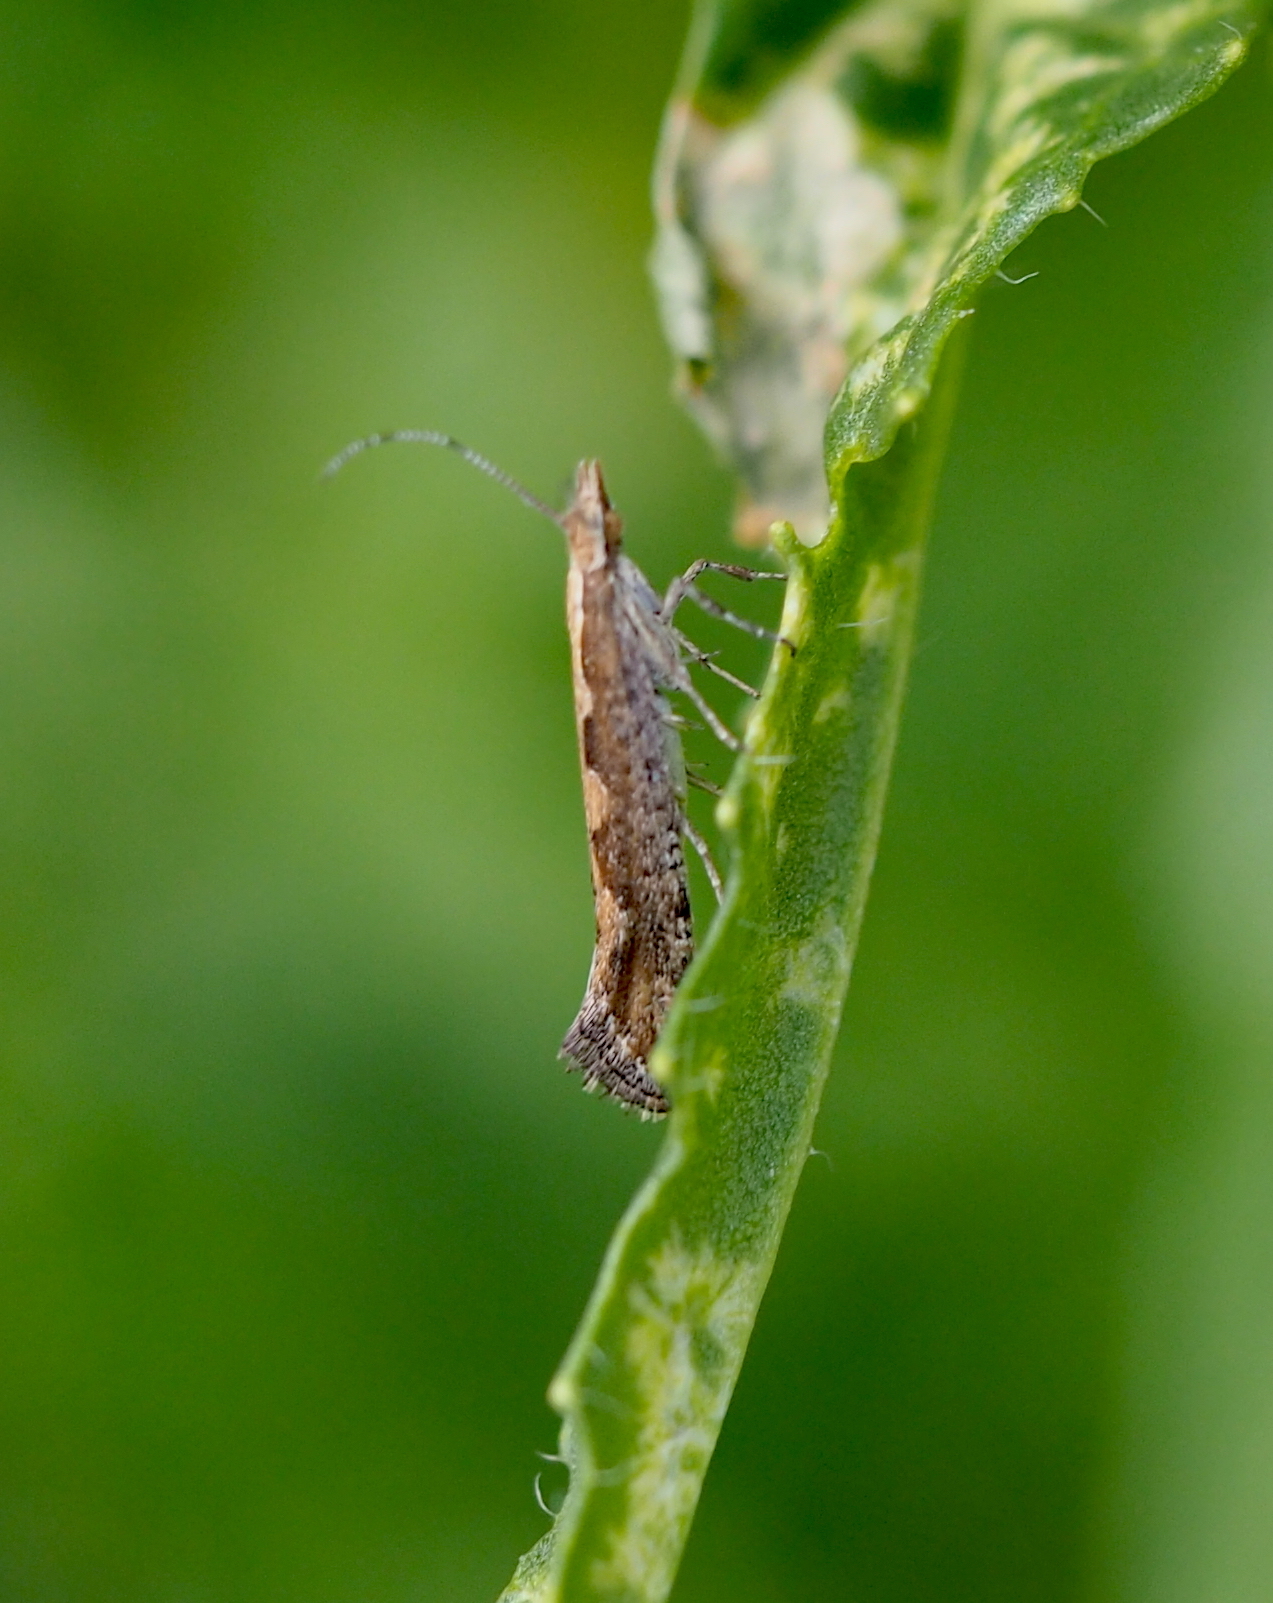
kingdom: Animalia
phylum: Arthropoda
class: Insecta
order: Lepidoptera
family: Plutellidae
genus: Plutella
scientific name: Plutella xylostella
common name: Diamond-back moth
